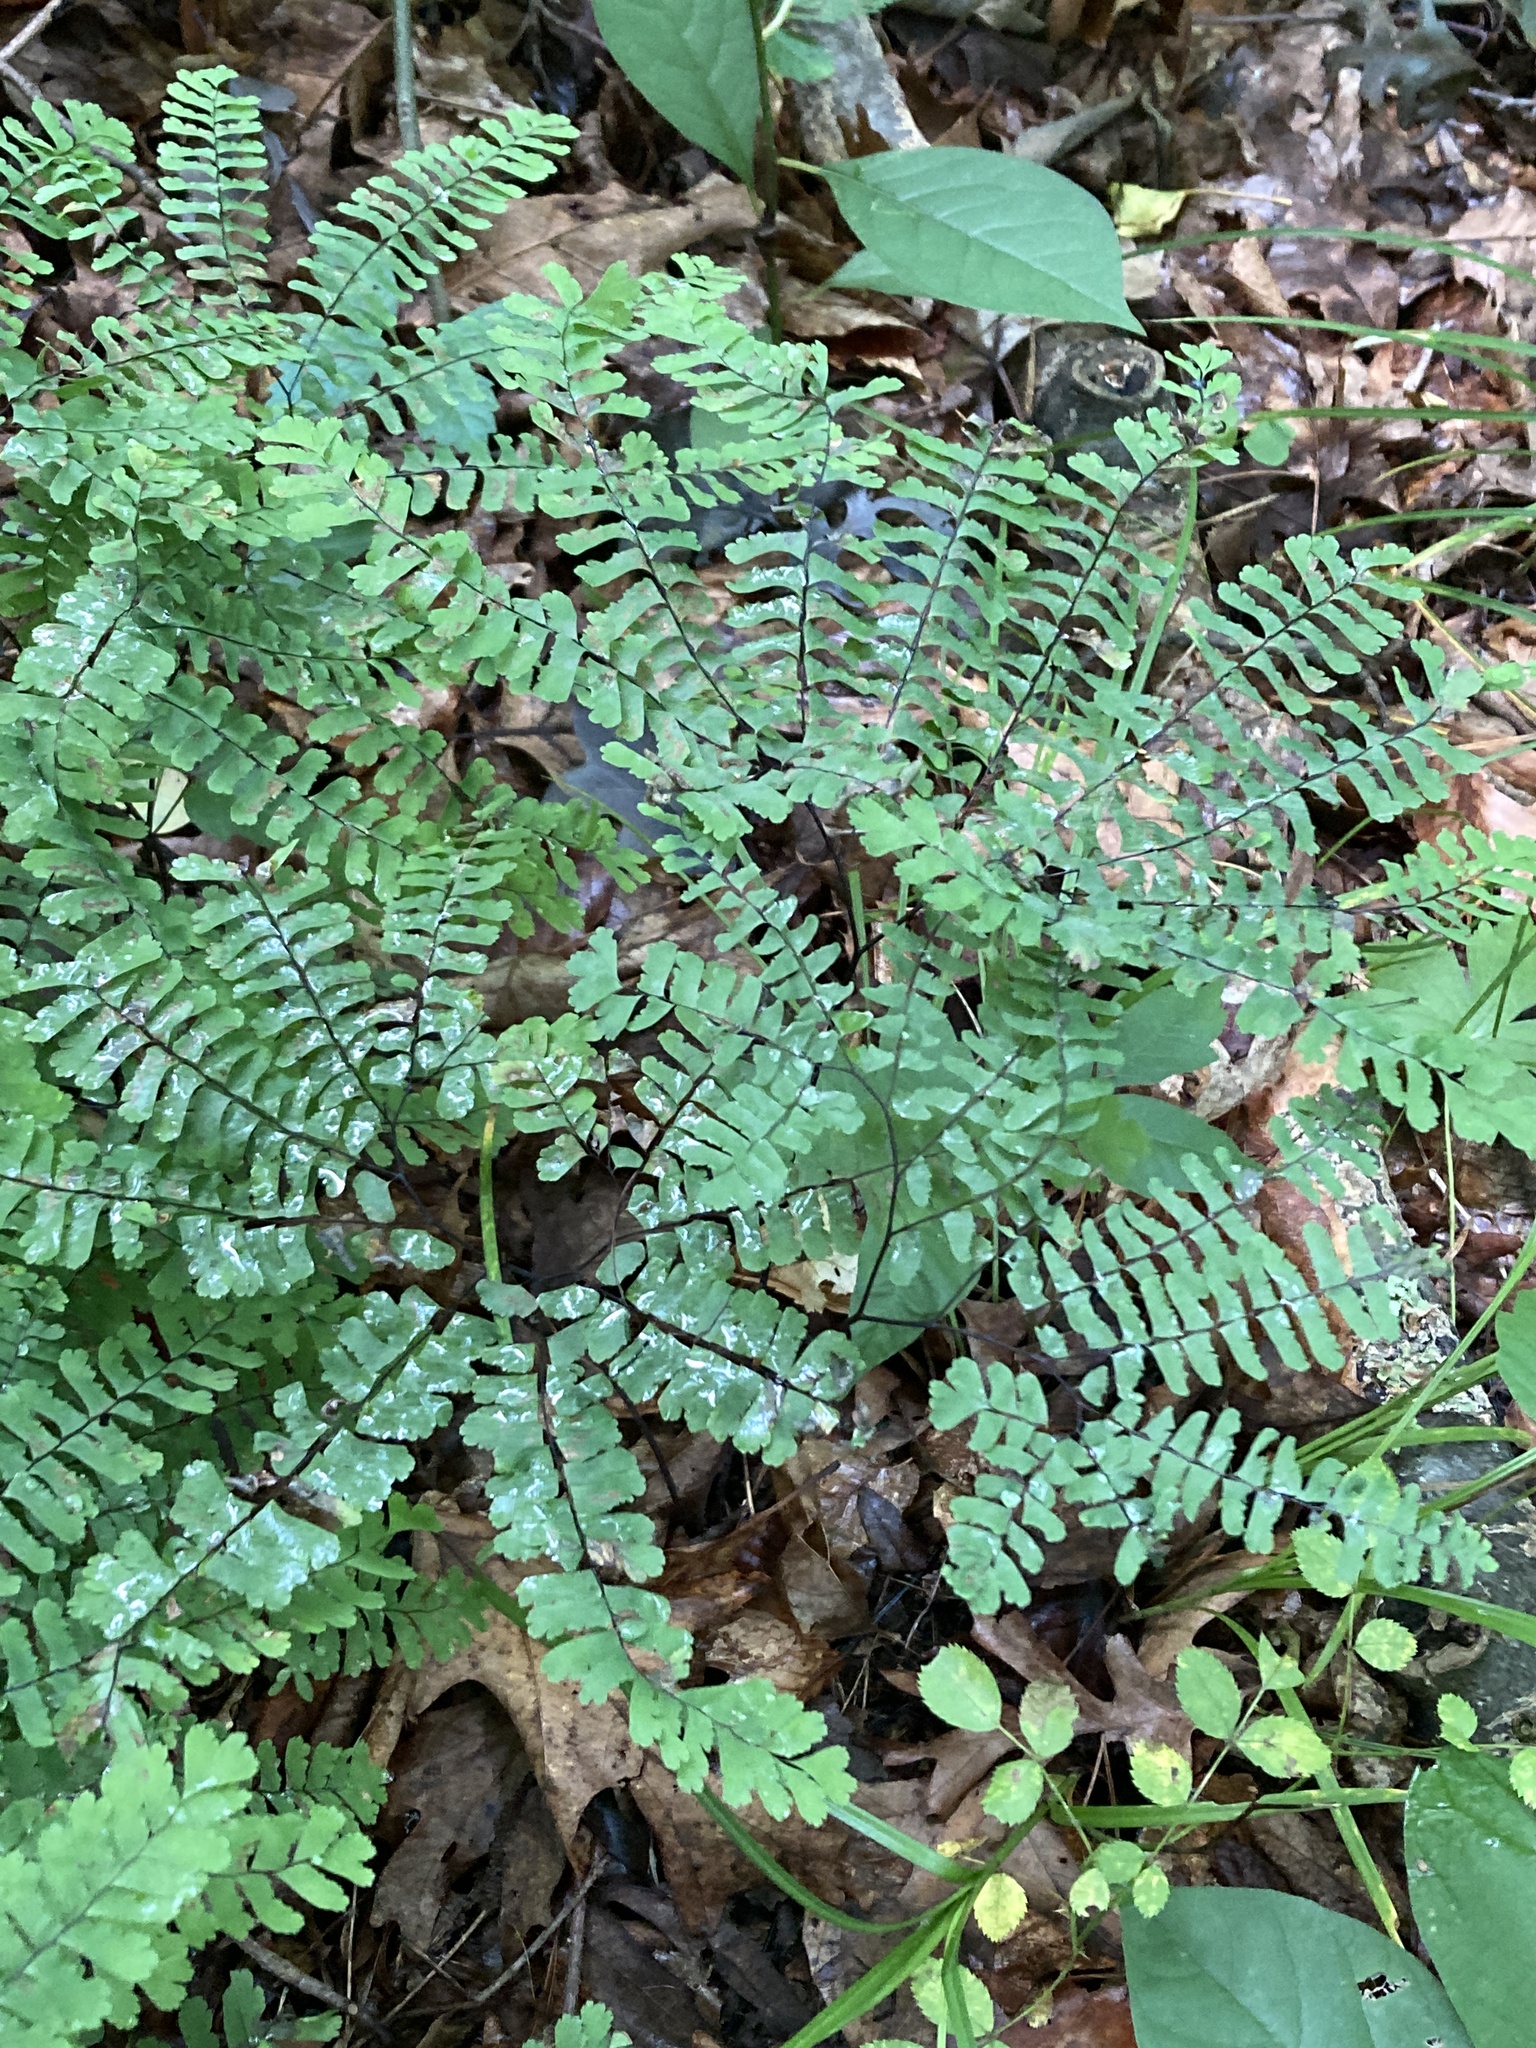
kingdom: Plantae
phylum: Tracheophyta
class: Polypodiopsida
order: Polypodiales
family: Pteridaceae
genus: Adiantum
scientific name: Adiantum pedatum
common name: Five-finger fern
